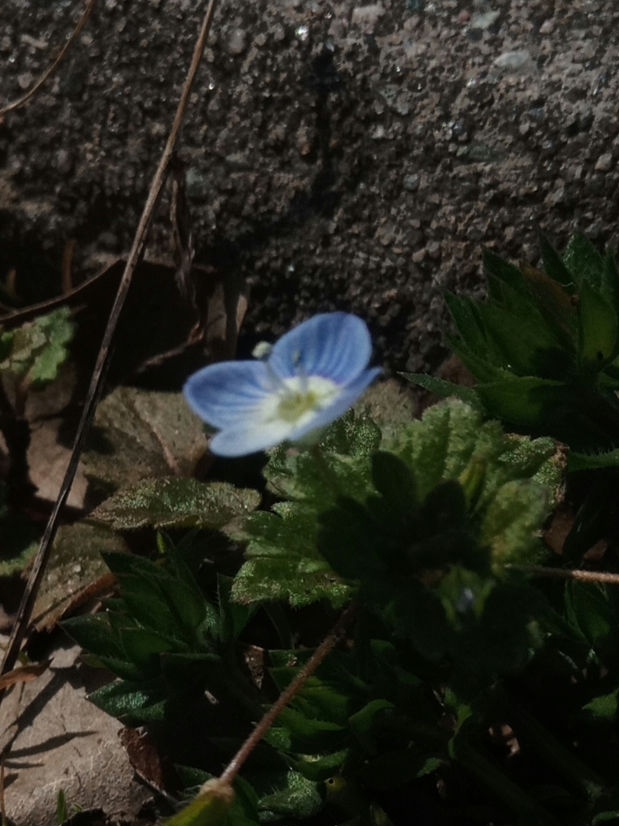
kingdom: Plantae
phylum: Tracheophyta
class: Magnoliopsida
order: Lamiales
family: Plantaginaceae
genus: Veronica
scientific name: Veronica persica
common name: Common field-speedwell
